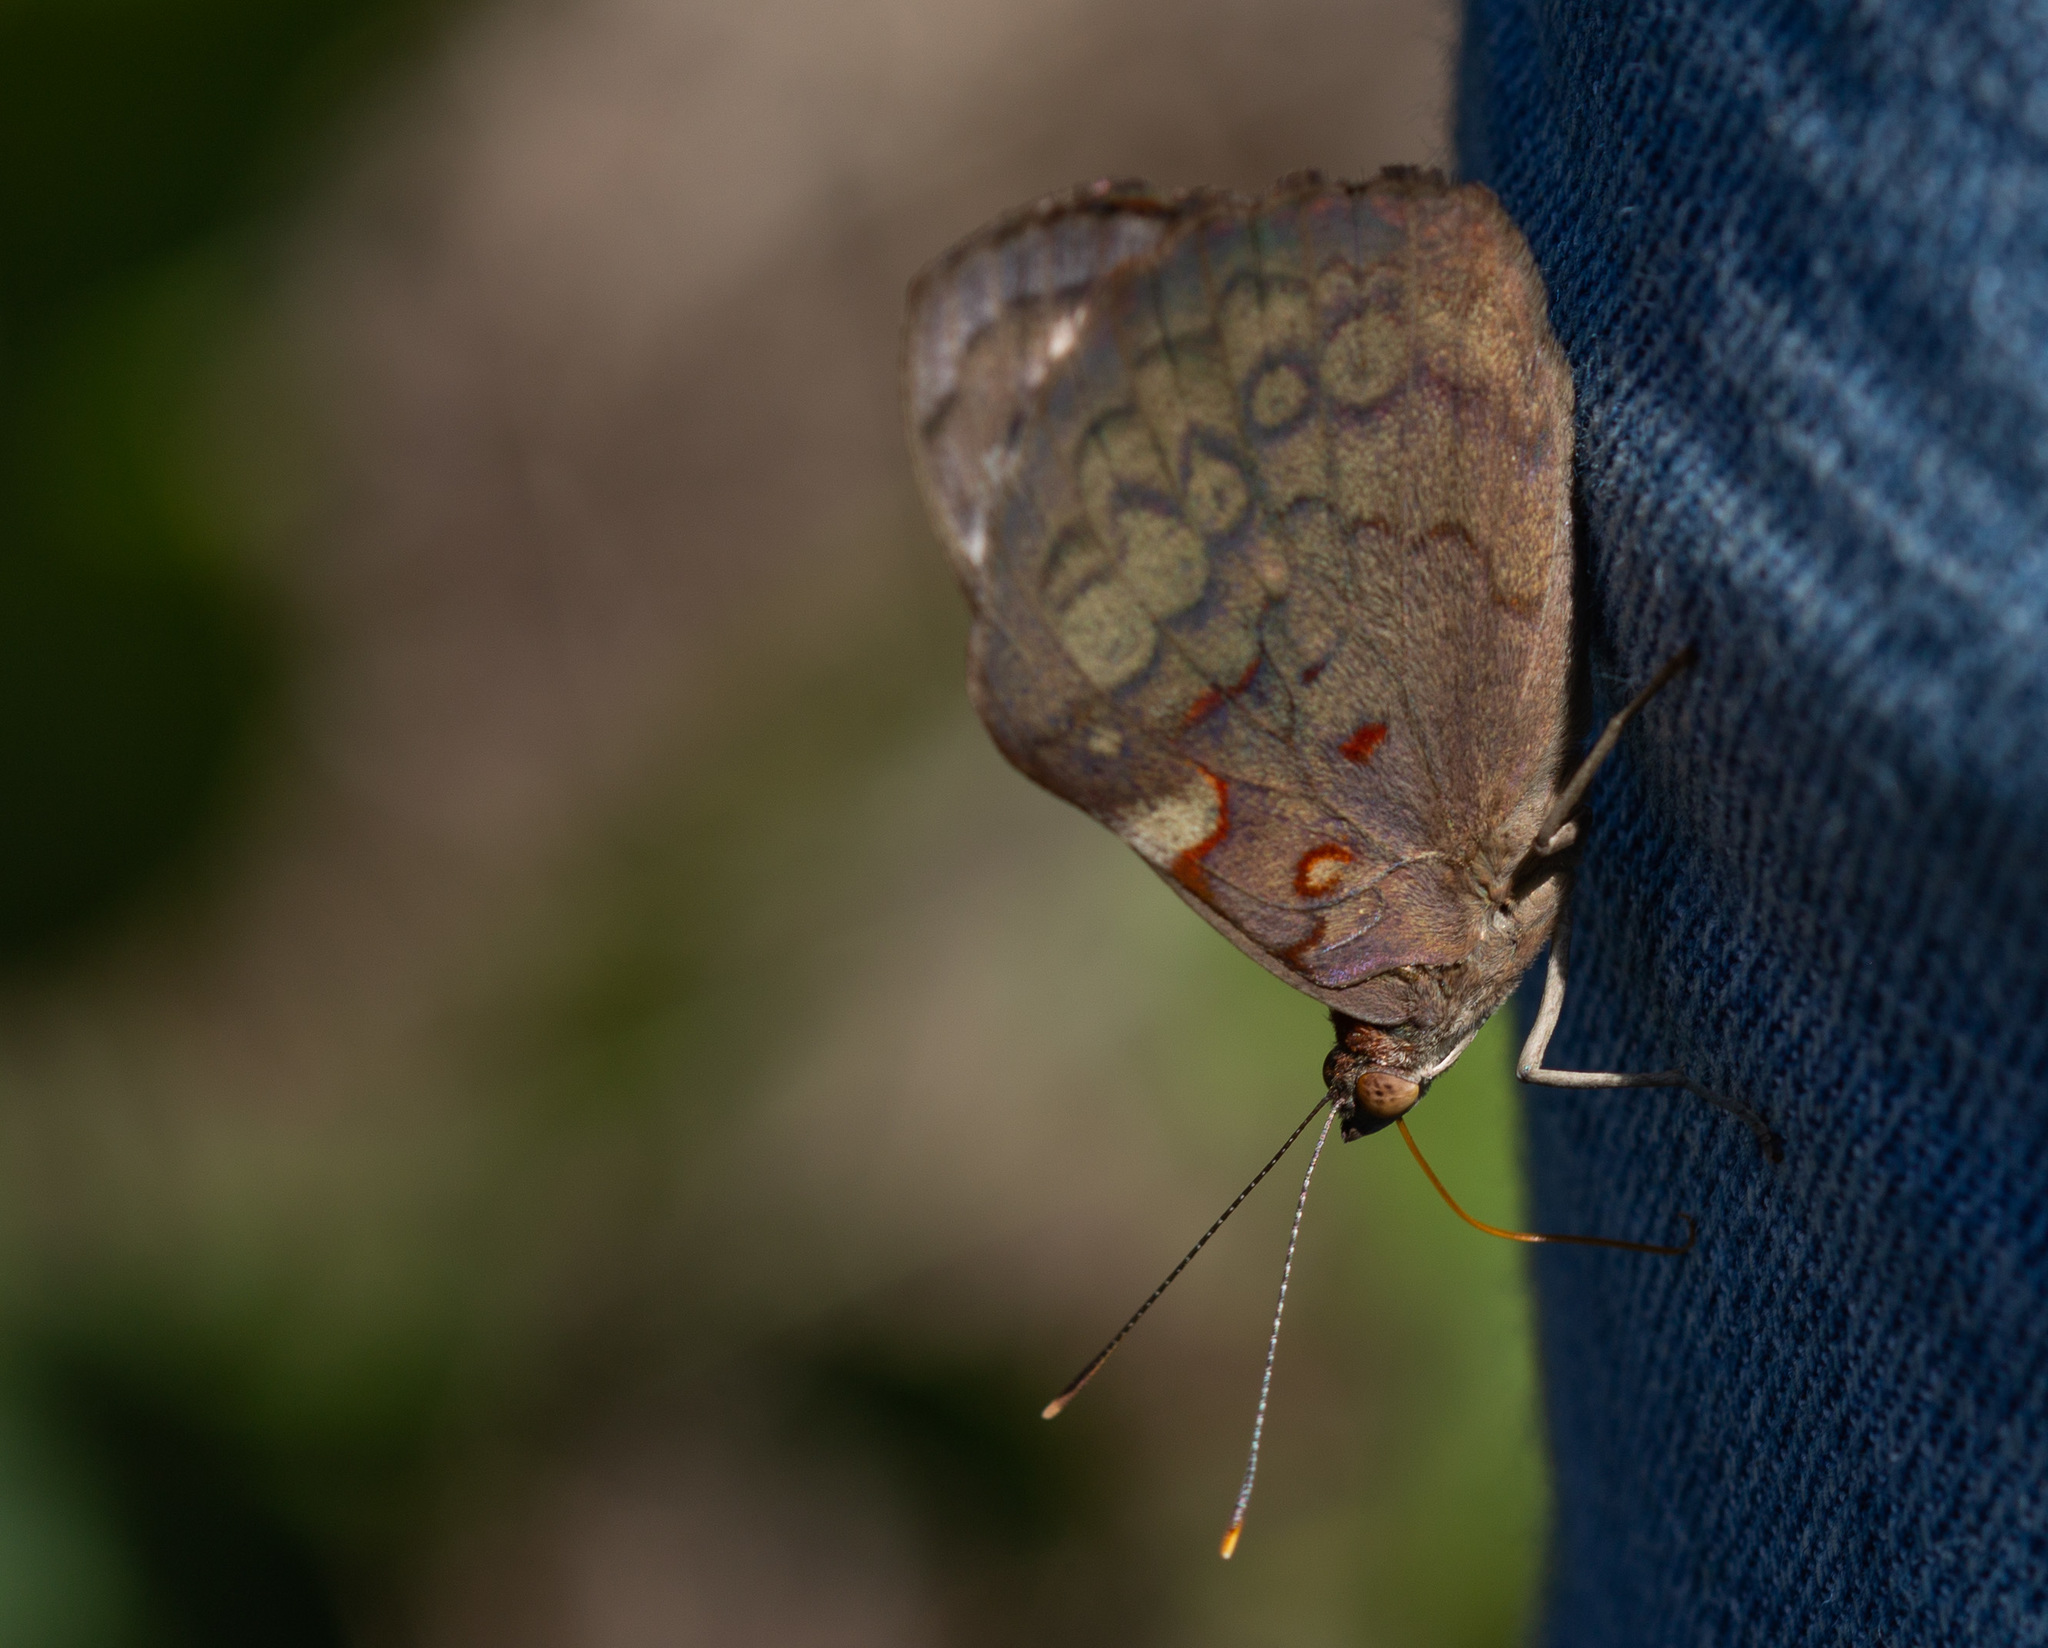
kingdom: Animalia
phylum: Arthropoda
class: Insecta
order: Lepidoptera
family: Nymphalidae
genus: Eunica
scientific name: Eunica bechina
